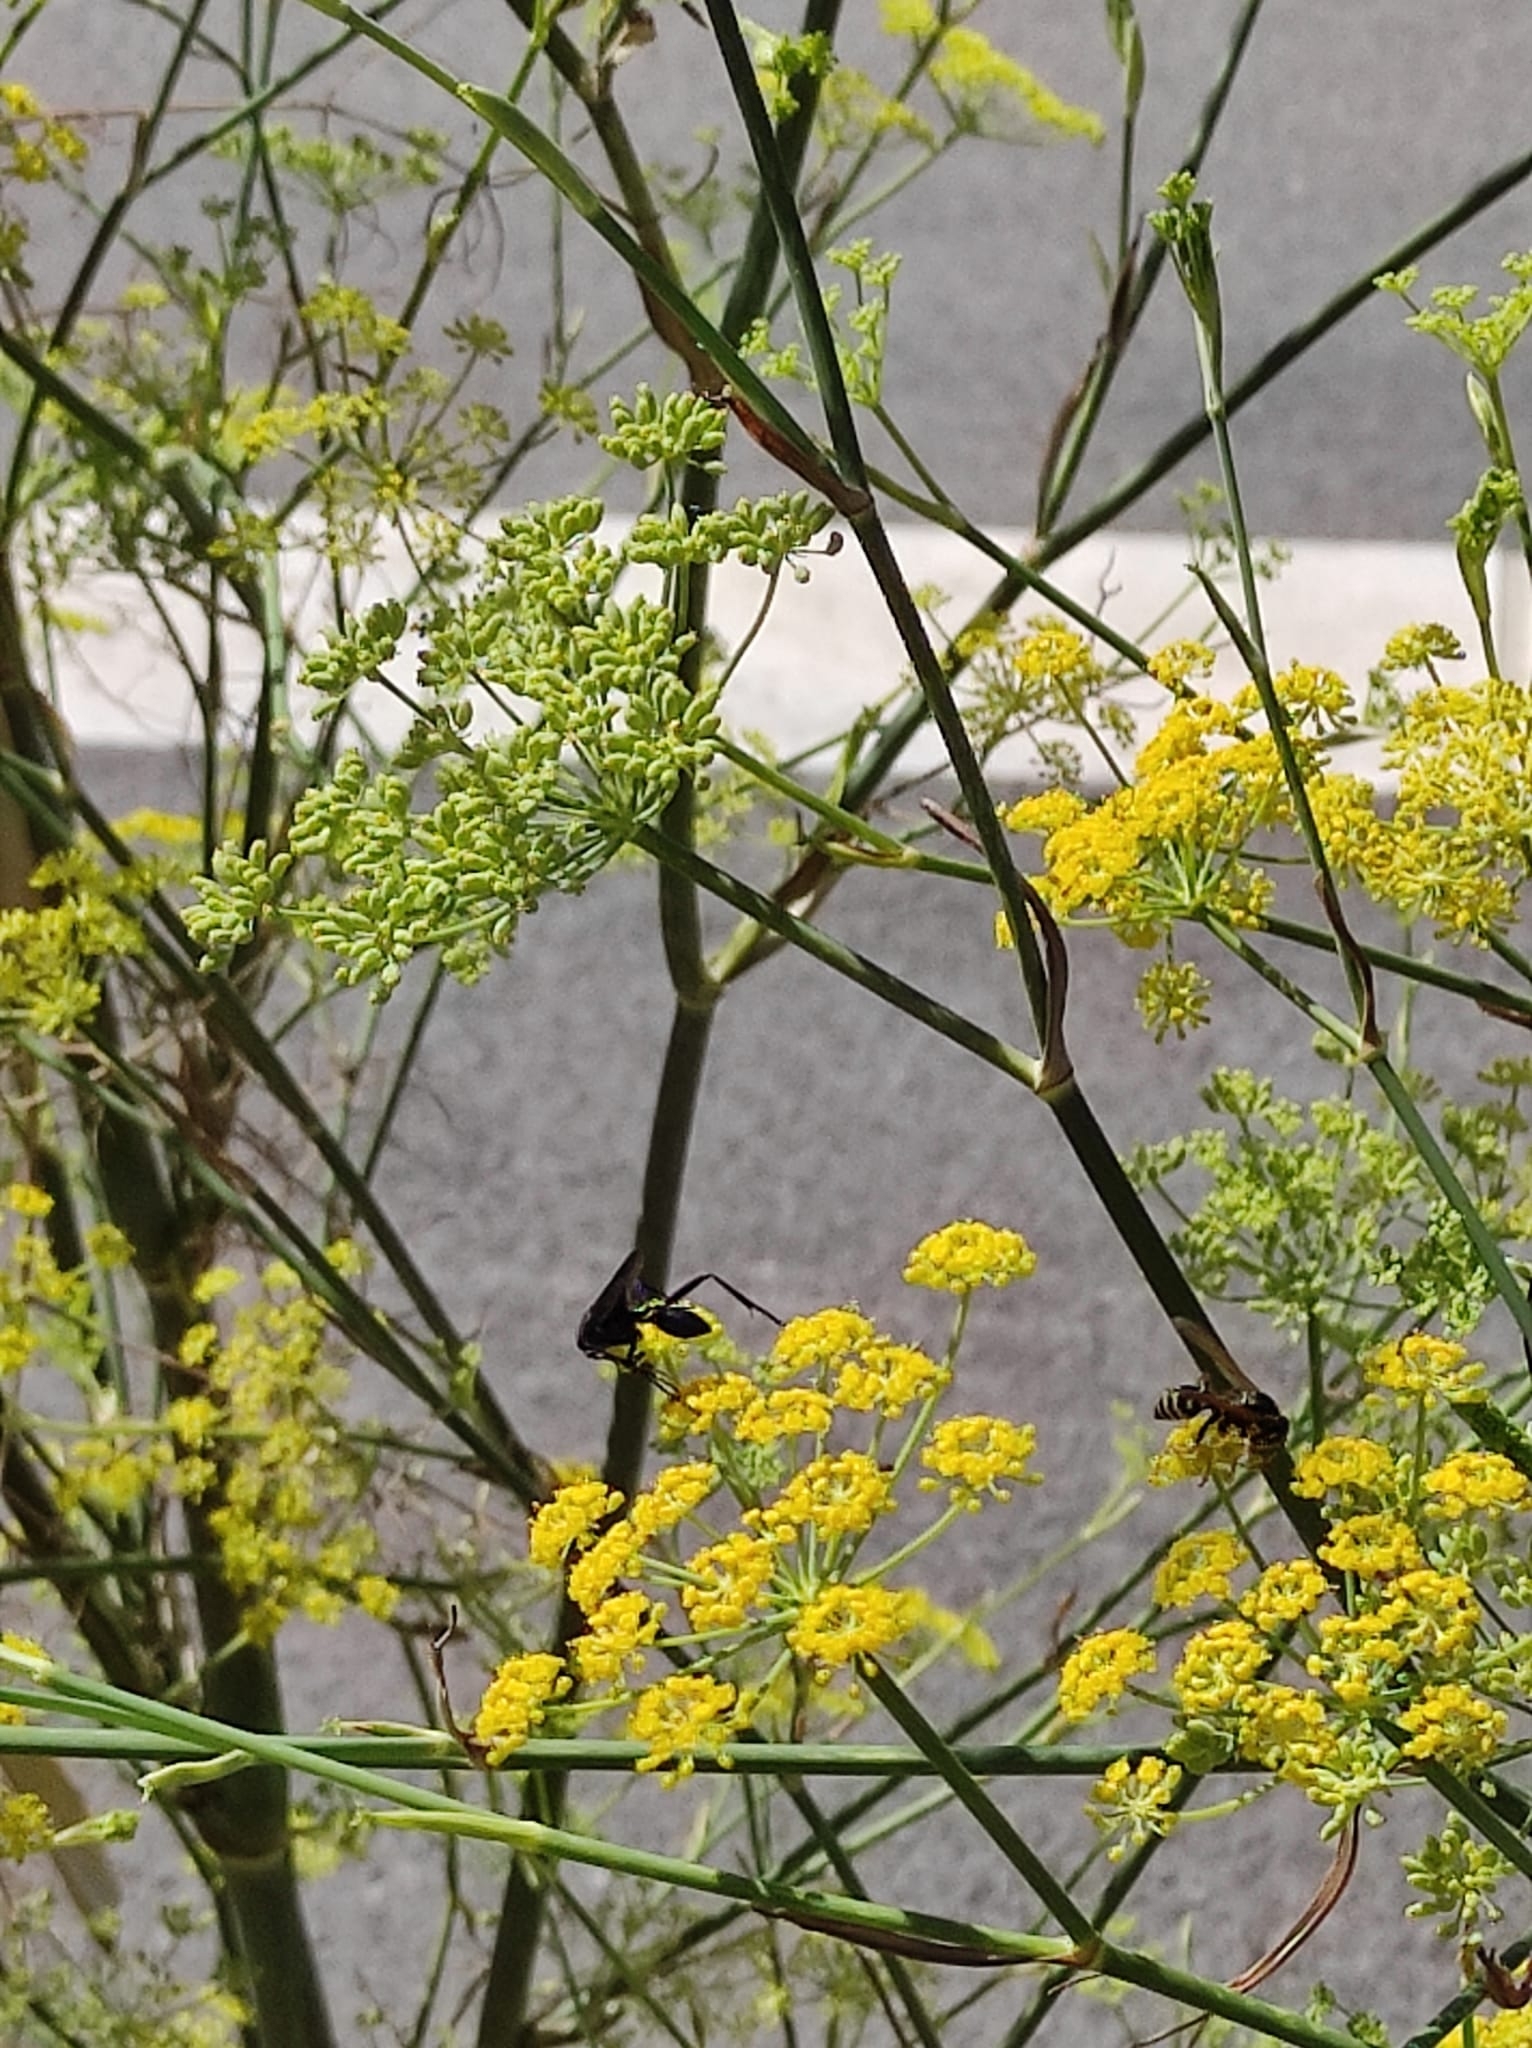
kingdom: Plantae
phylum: Tracheophyta
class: Magnoliopsida
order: Apiales
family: Apiaceae
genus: Foeniculum
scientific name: Foeniculum vulgare
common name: Fennel
